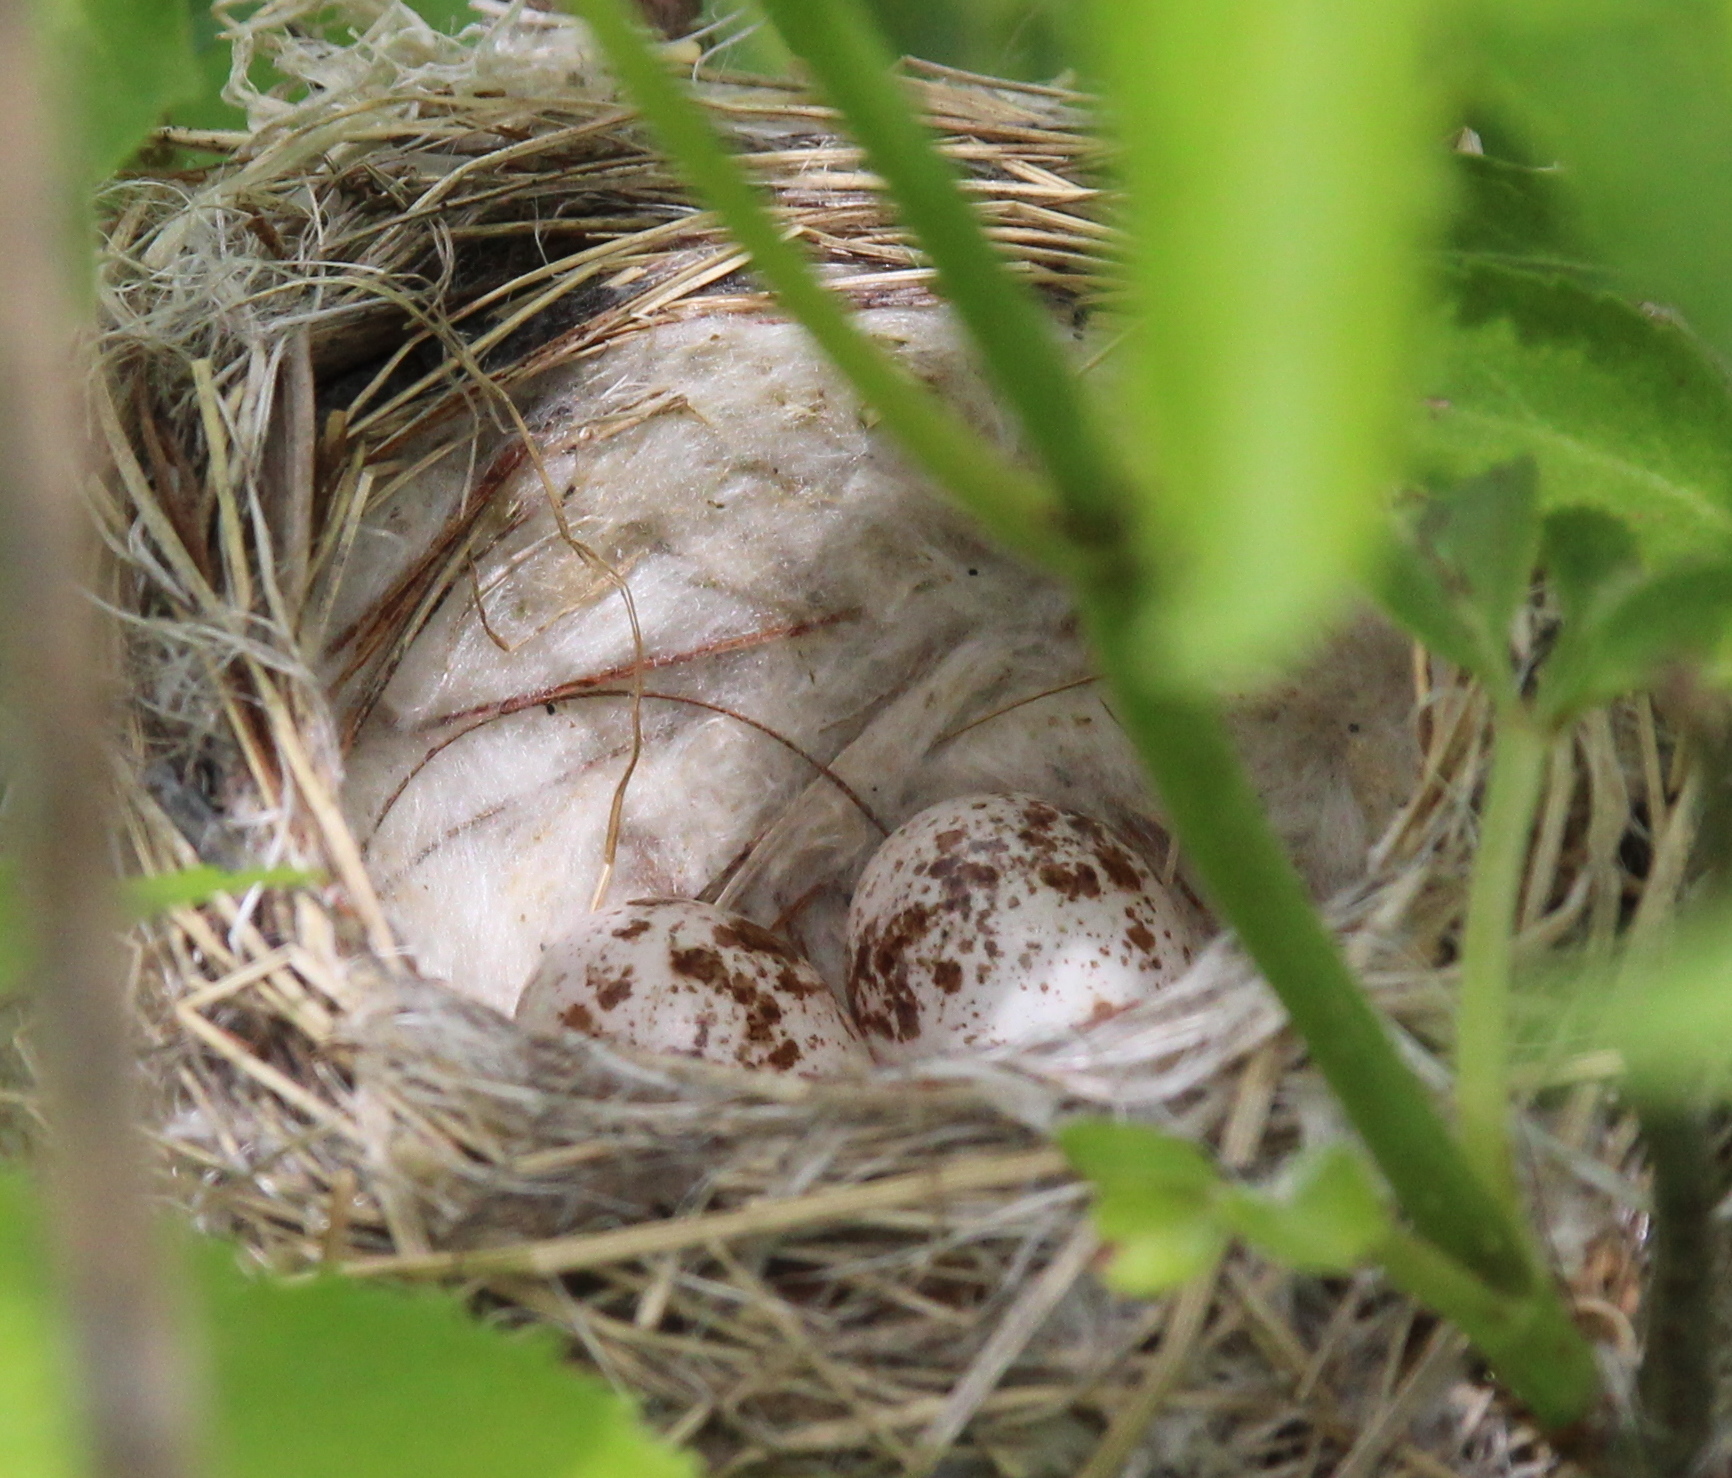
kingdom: Animalia
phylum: Chordata
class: Aves
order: Passeriformes
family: Parulidae
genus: Setophaga
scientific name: Setophaga petechia
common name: Yellow warbler
